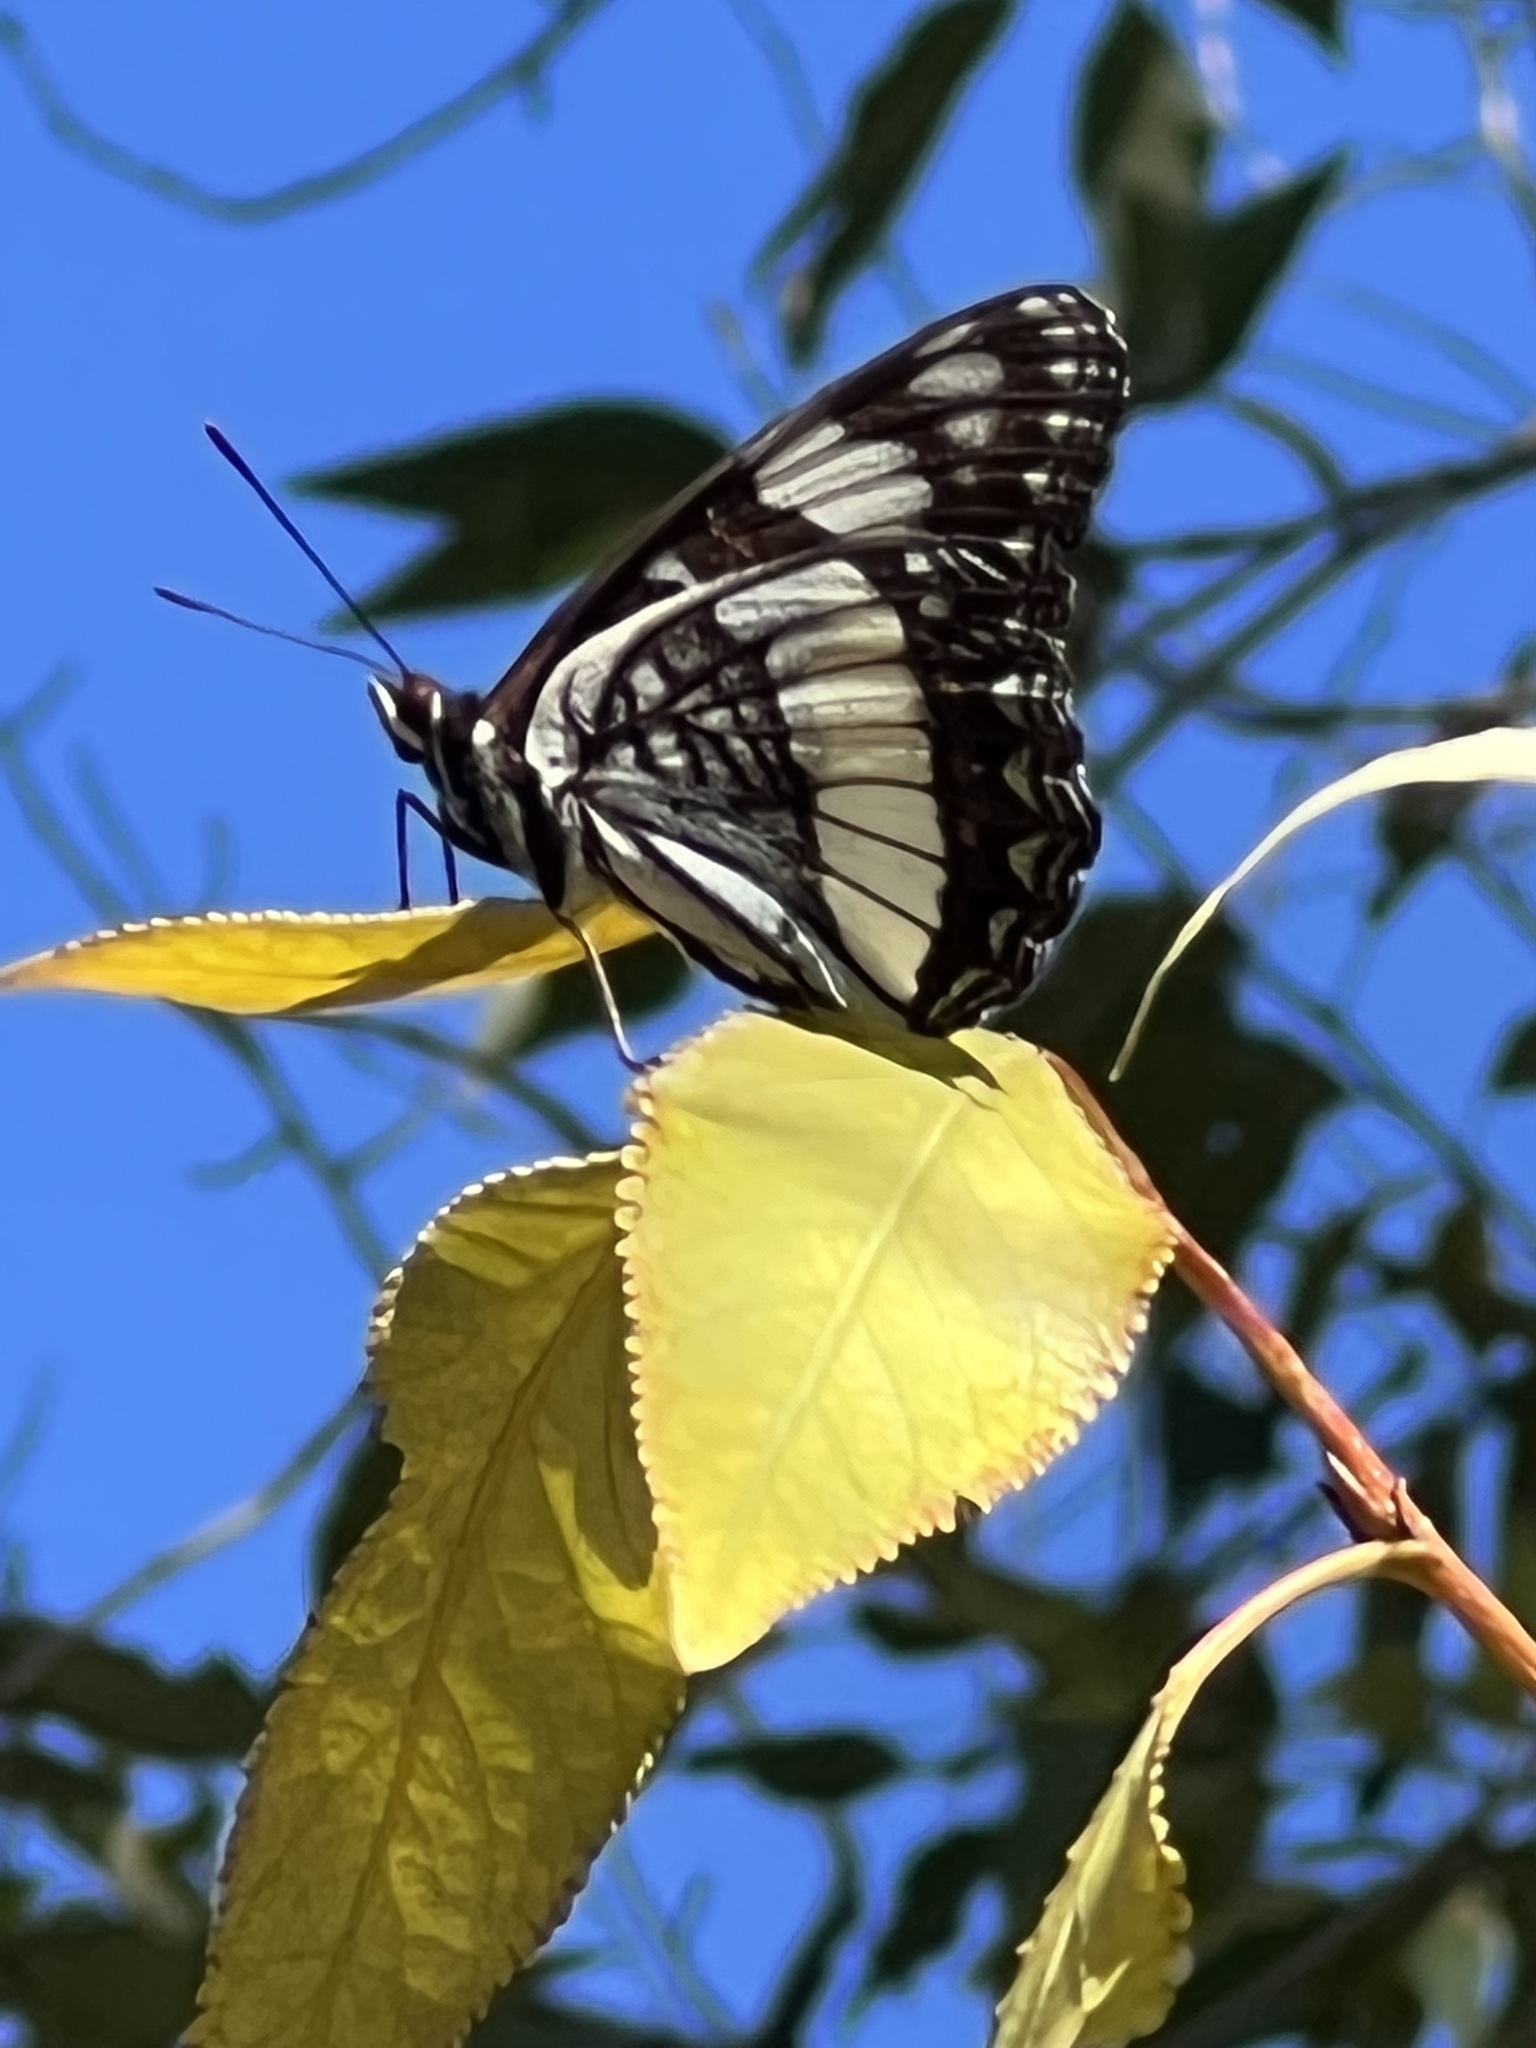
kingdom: Animalia
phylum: Arthropoda
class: Insecta
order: Lepidoptera
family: Nymphalidae
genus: Limenitis
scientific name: Limenitis weidemeyerii
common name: Weidemeyer's admiral
